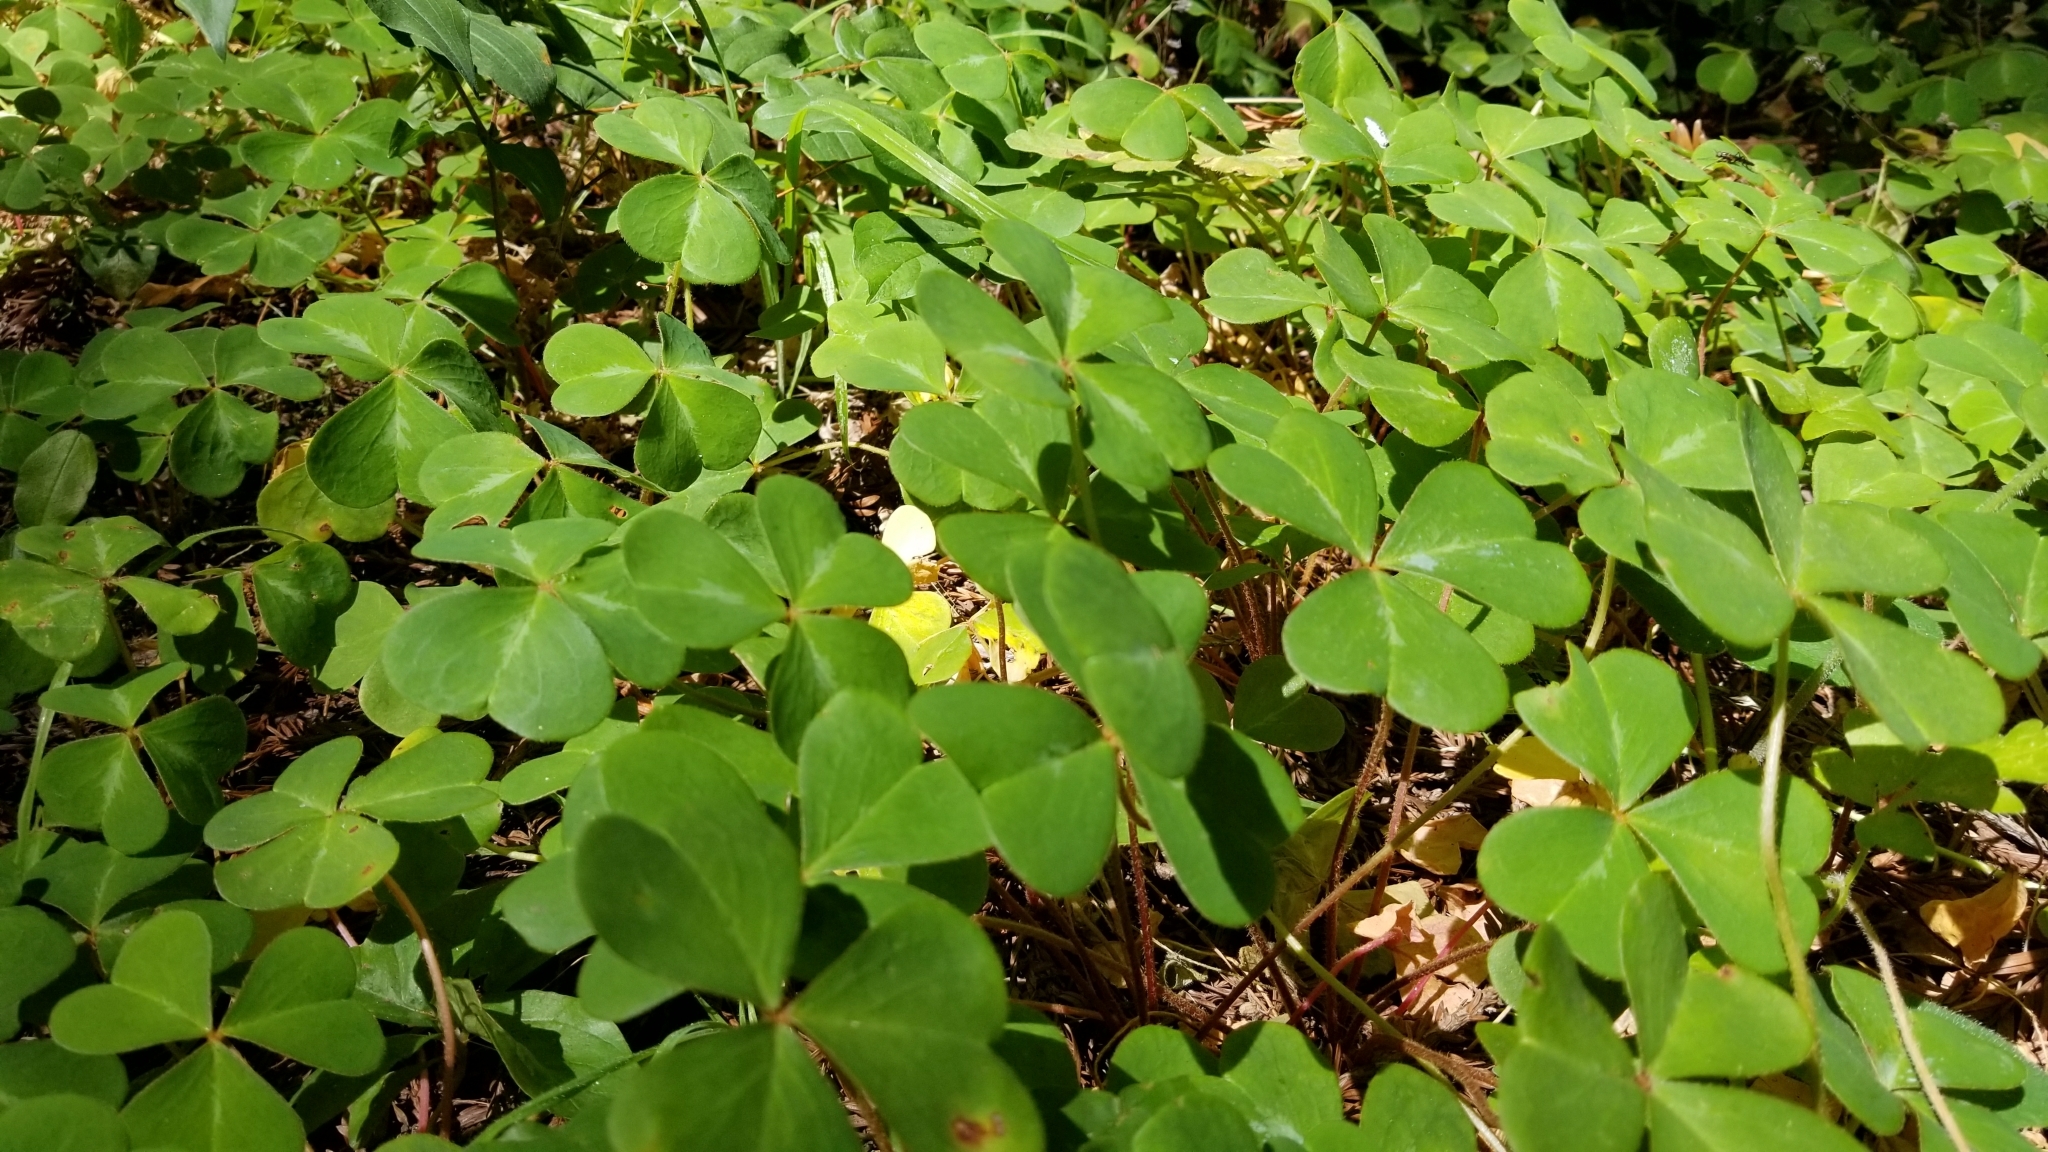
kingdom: Plantae
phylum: Tracheophyta
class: Magnoliopsida
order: Oxalidales
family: Oxalidaceae
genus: Oxalis
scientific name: Oxalis oregana
